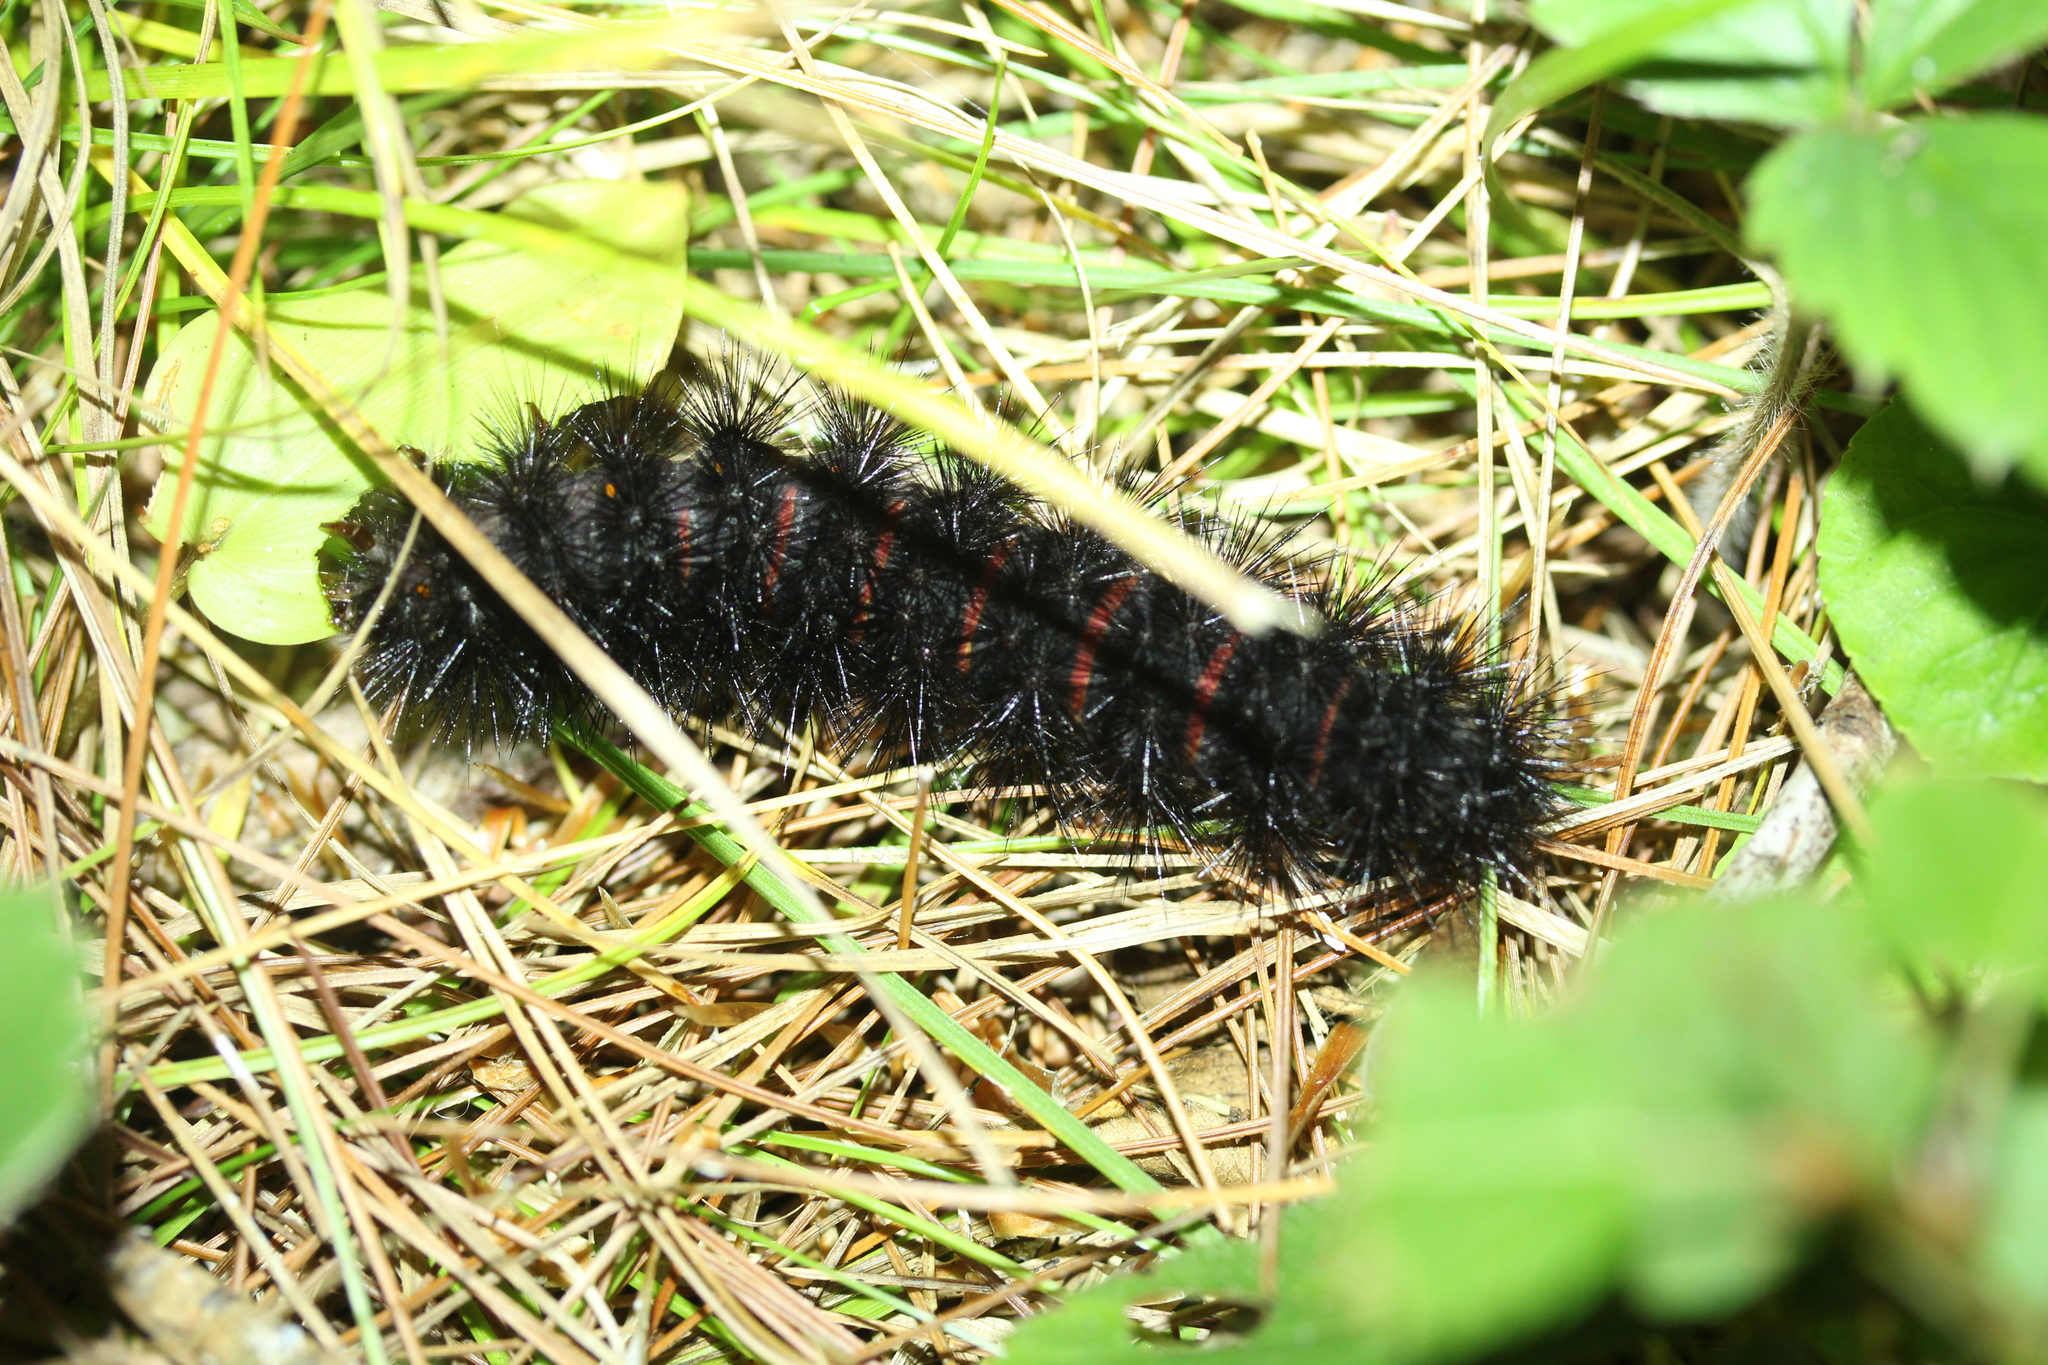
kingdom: Animalia
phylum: Arthropoda
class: Insecta
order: Lepidoptera
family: Erebidae
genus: Hypercompe
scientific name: Hypercompe scribonia
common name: Giant leopard moth
